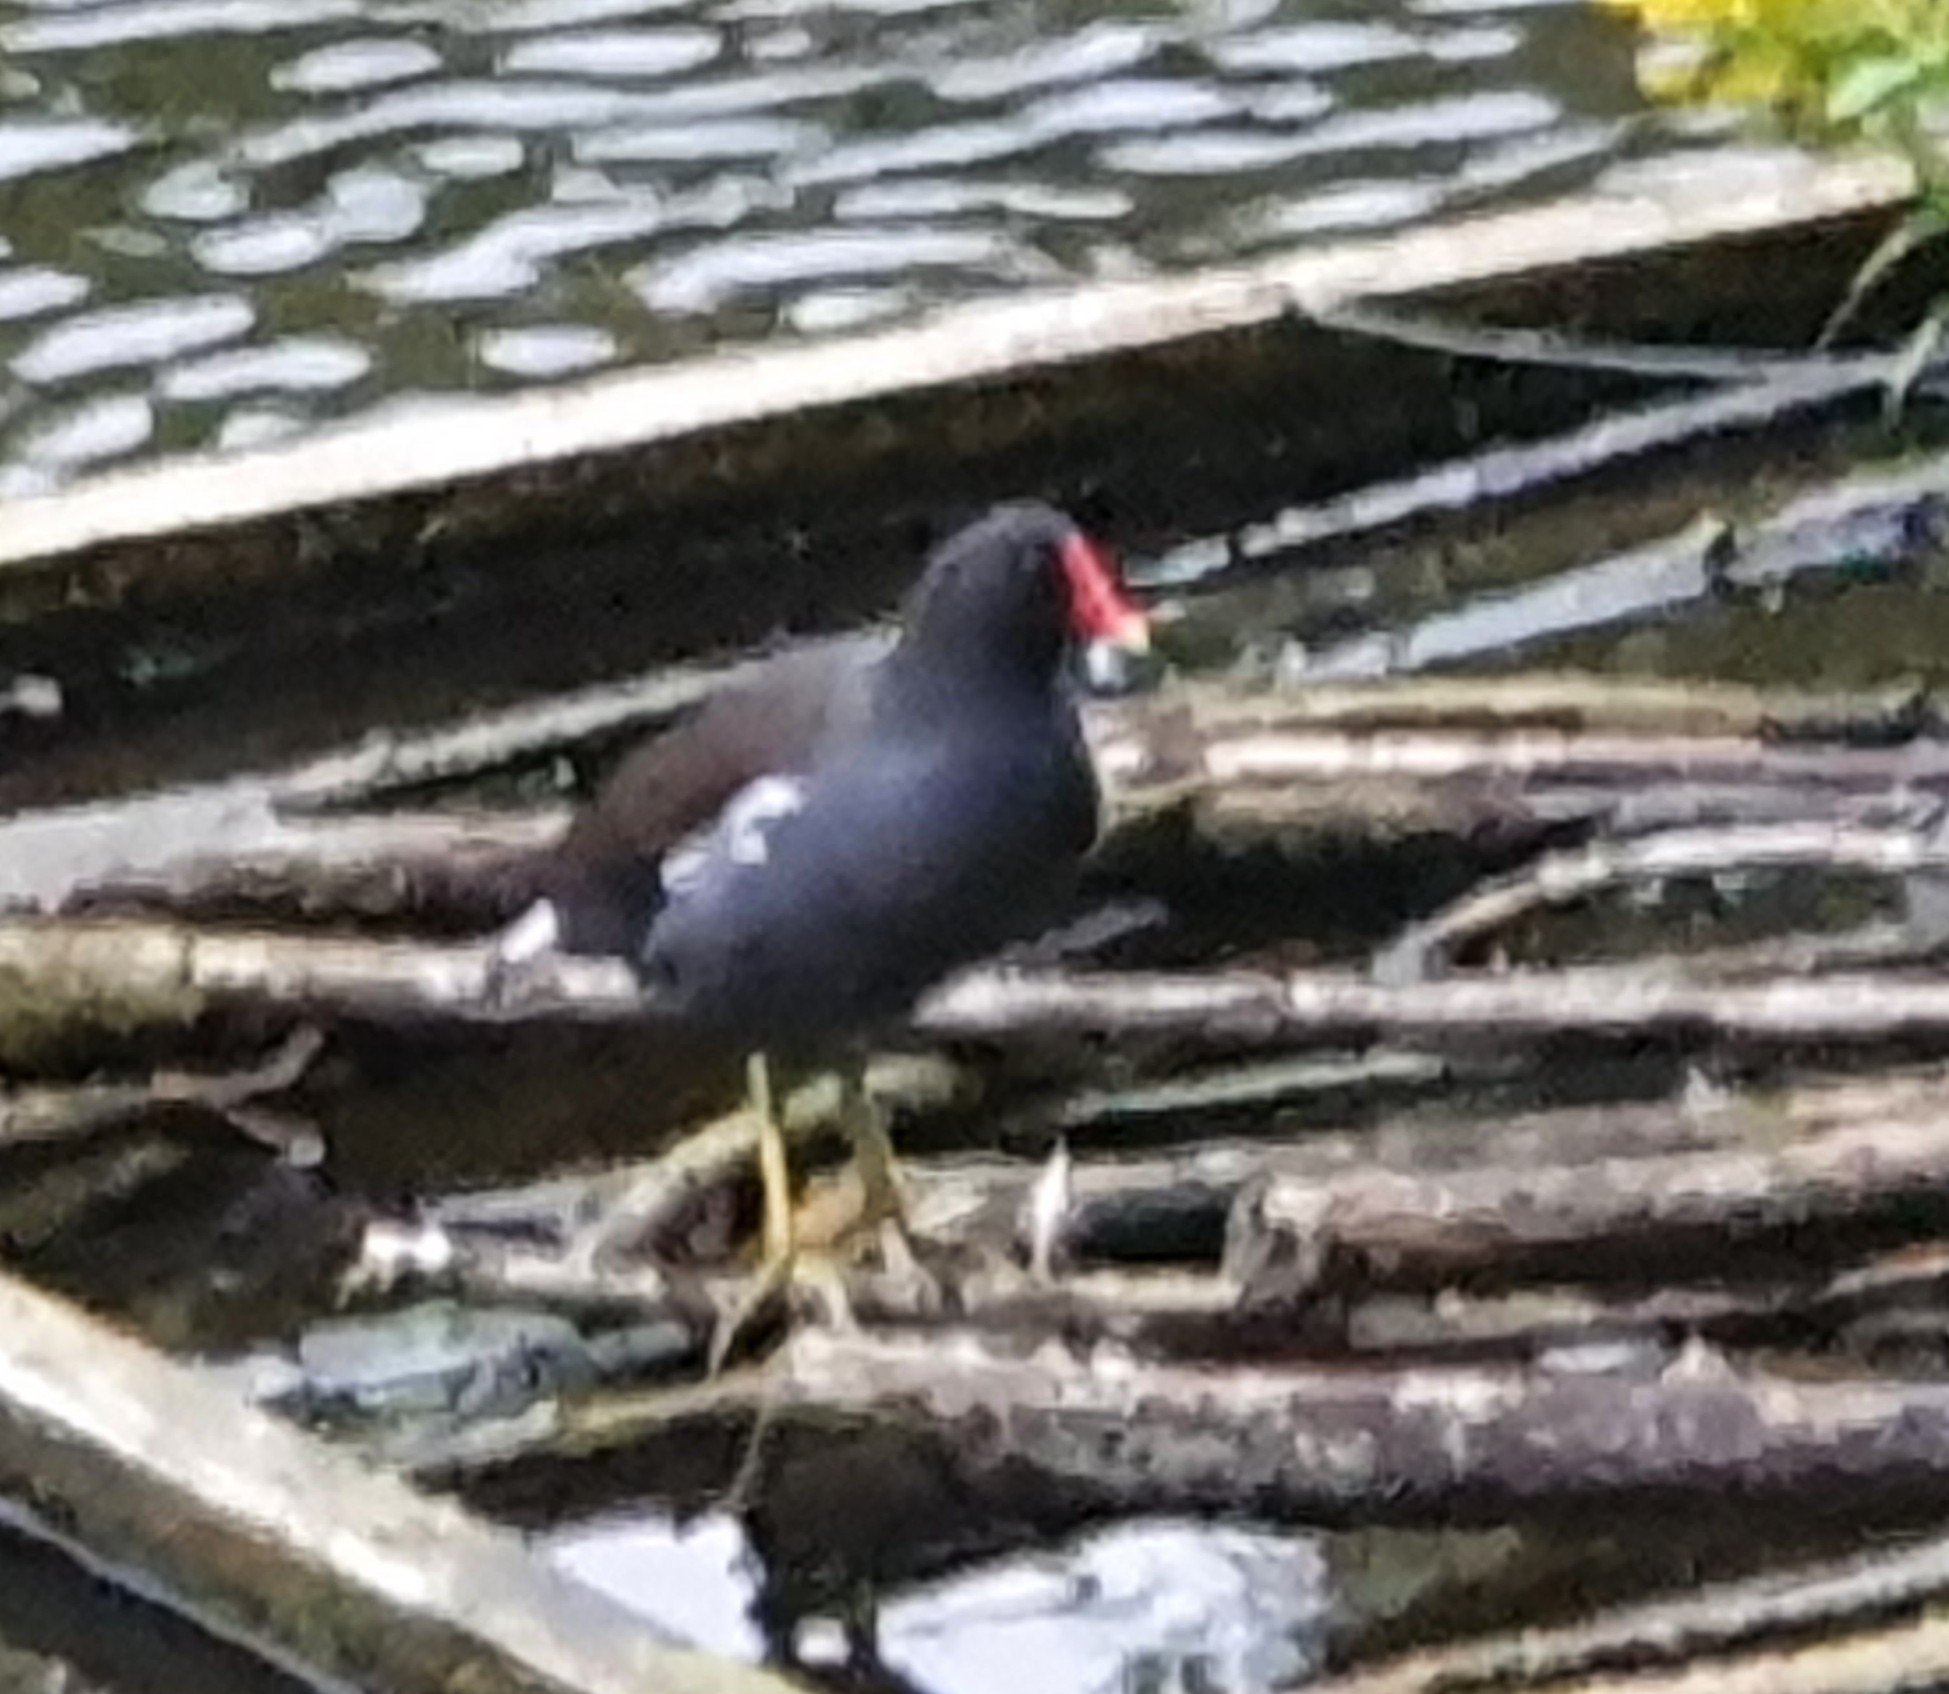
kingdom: Animalia
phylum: Chordata
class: Aves
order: Gruiformes
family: Rallidae
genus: Gallinula
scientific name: Gallinula chloropus
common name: Common moorhen
